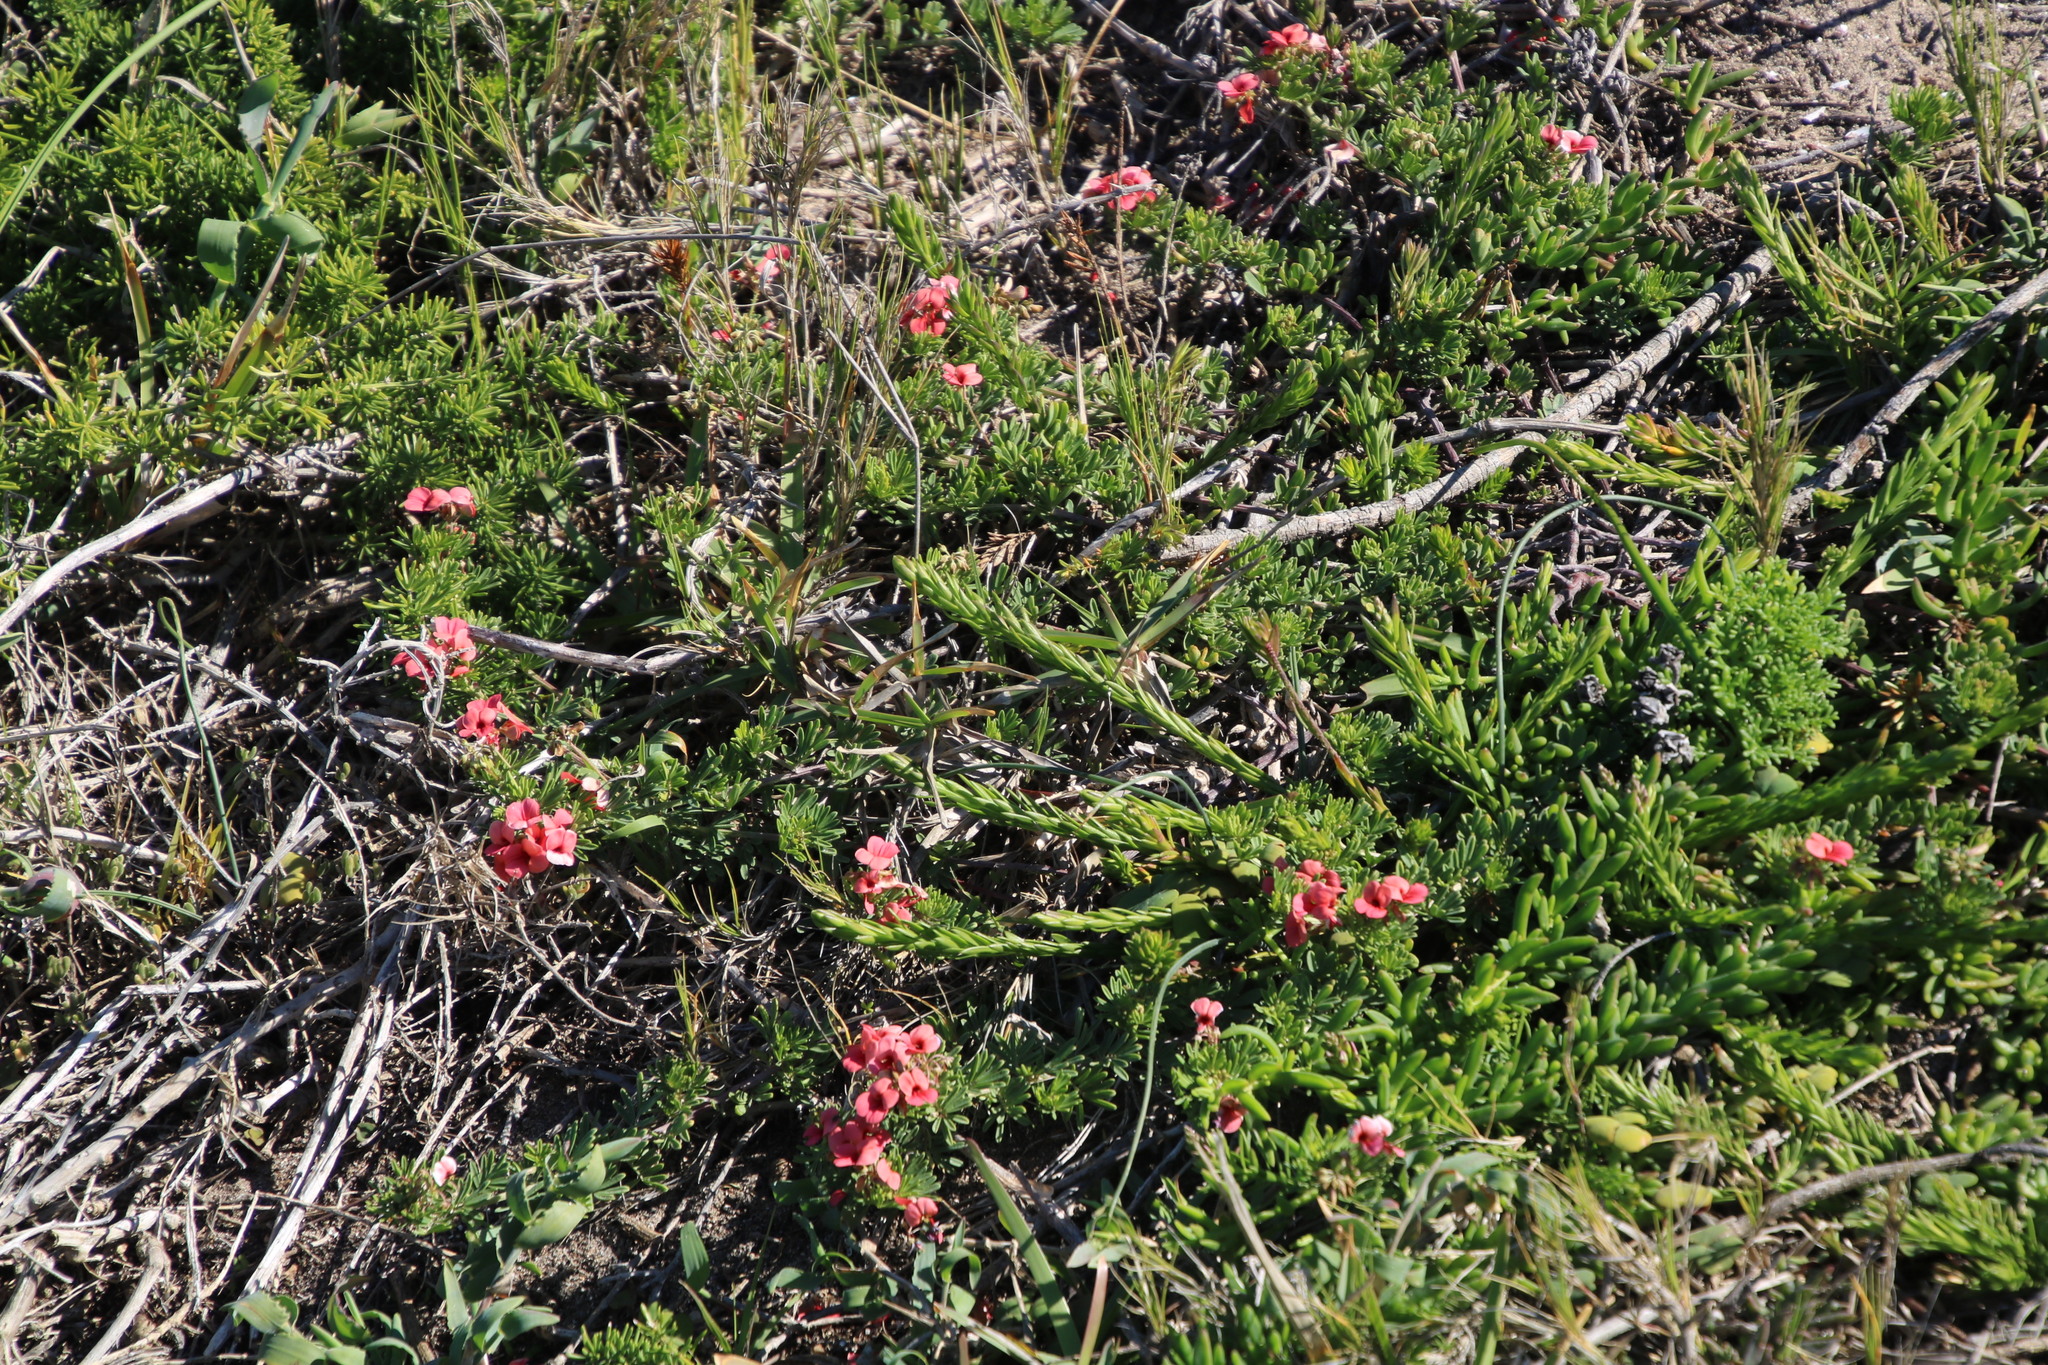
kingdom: Plantae
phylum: Tracheophyta
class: Magnoliopsida
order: Fabales
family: Fabaceae
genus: Indigofera
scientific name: Indigofera verrucosa
